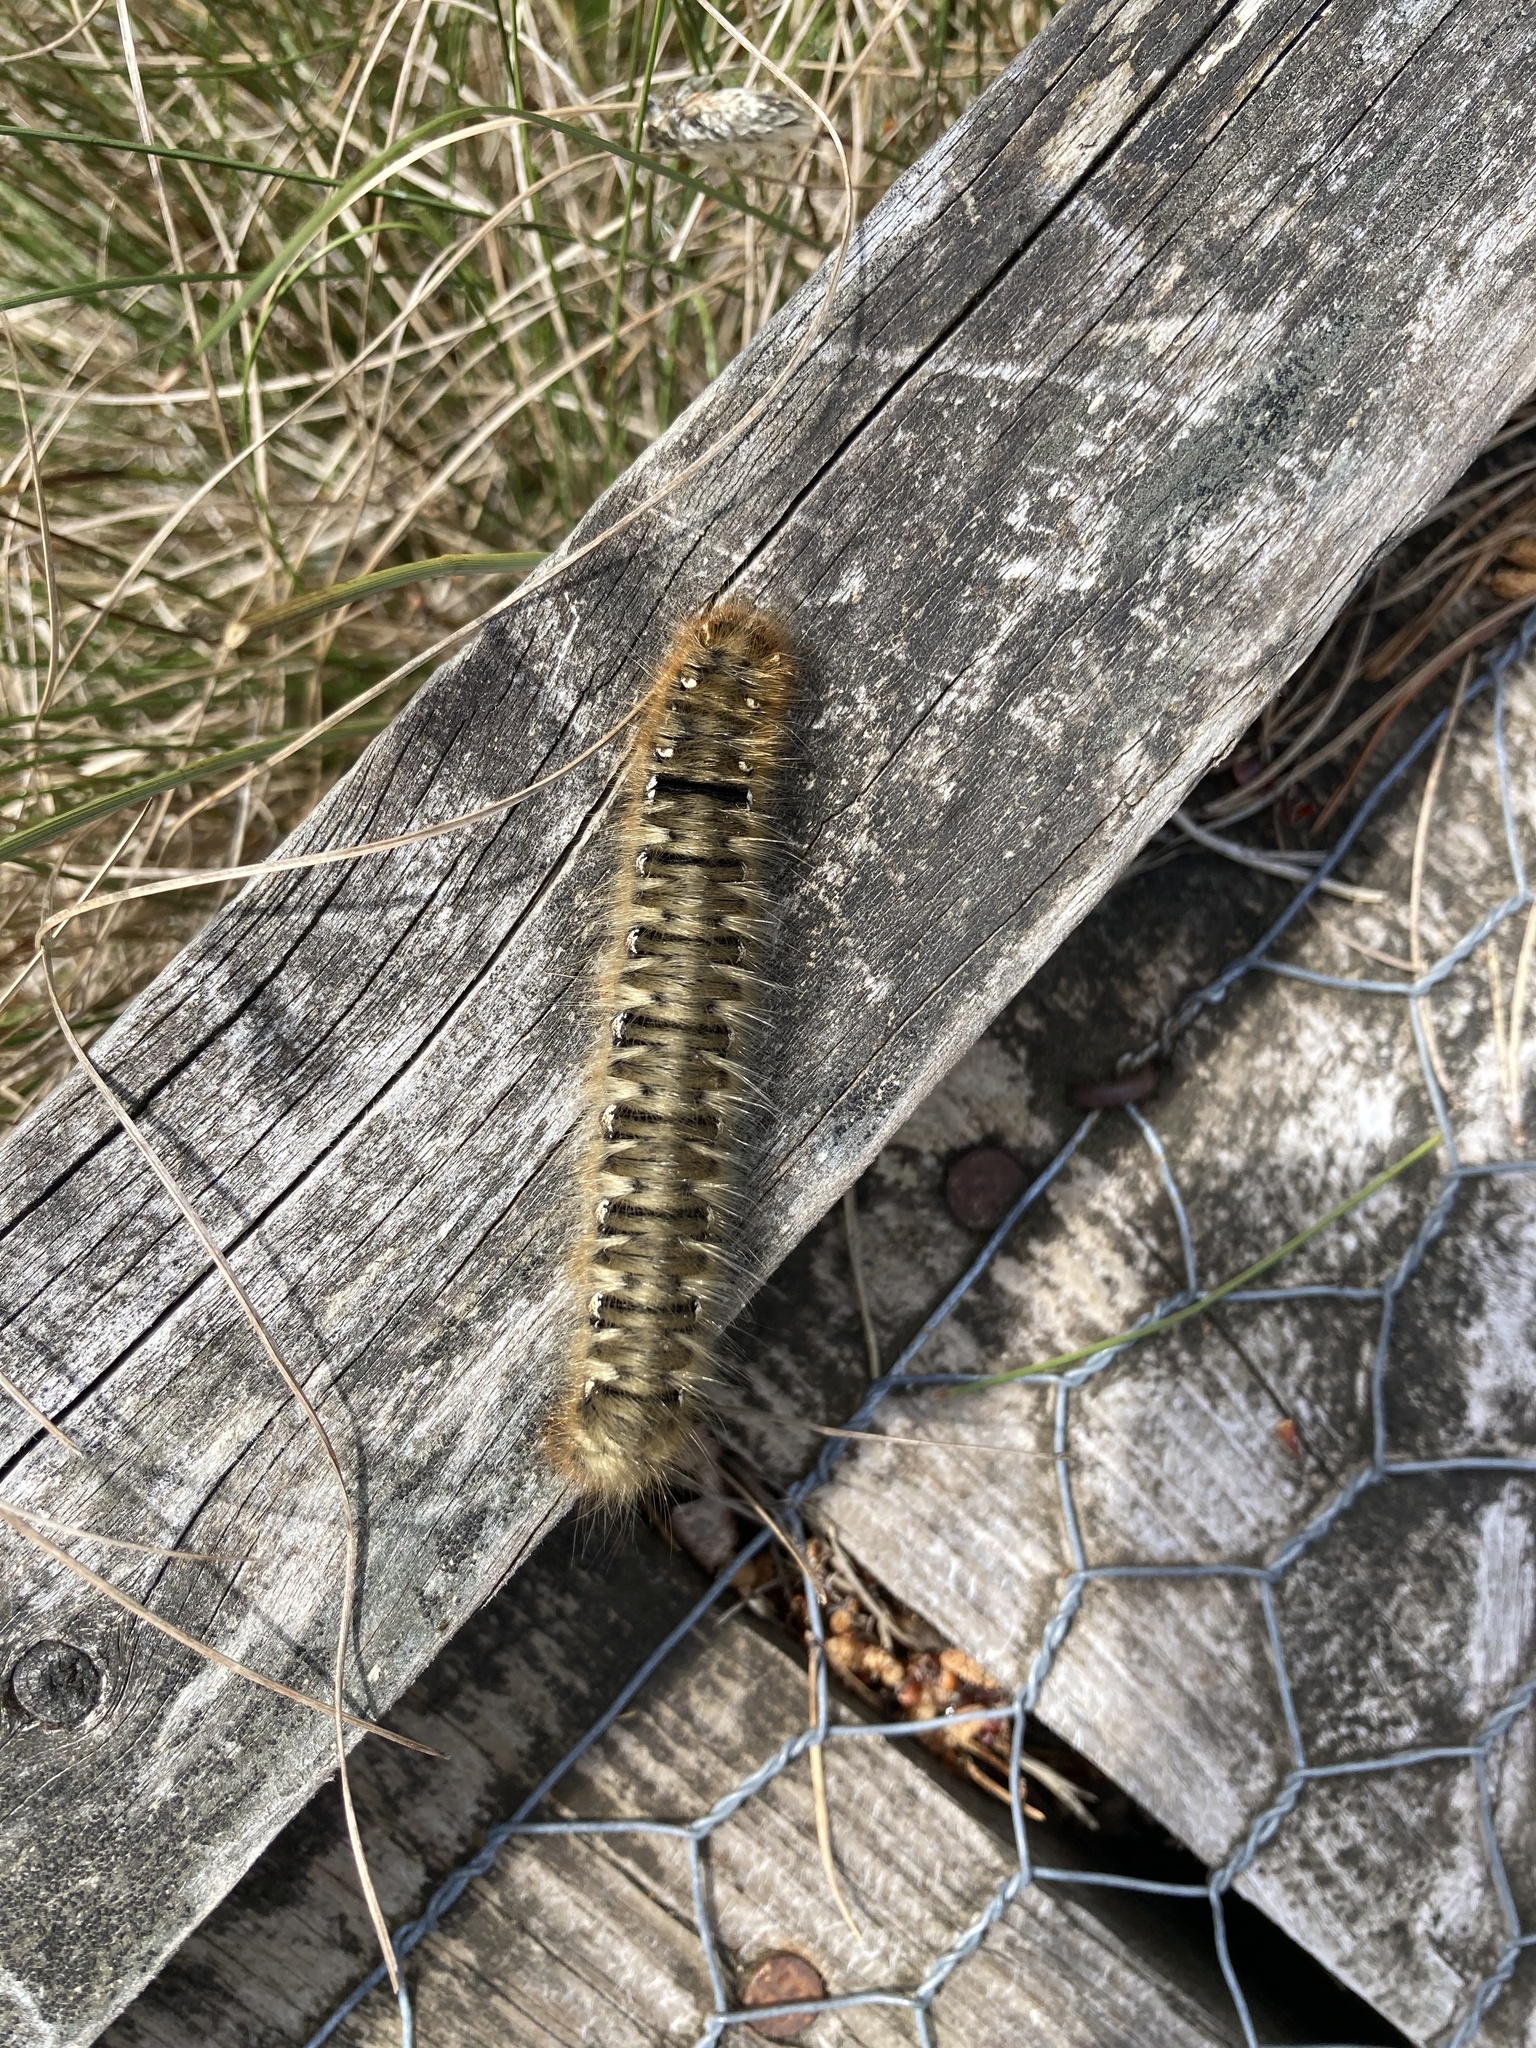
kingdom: Animalia
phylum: Arthropoda
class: Insecta
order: Lepidoptera
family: Lasiocampidae
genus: Lasiocampa
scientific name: Lasiocampa quercus
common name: Oak eggar
